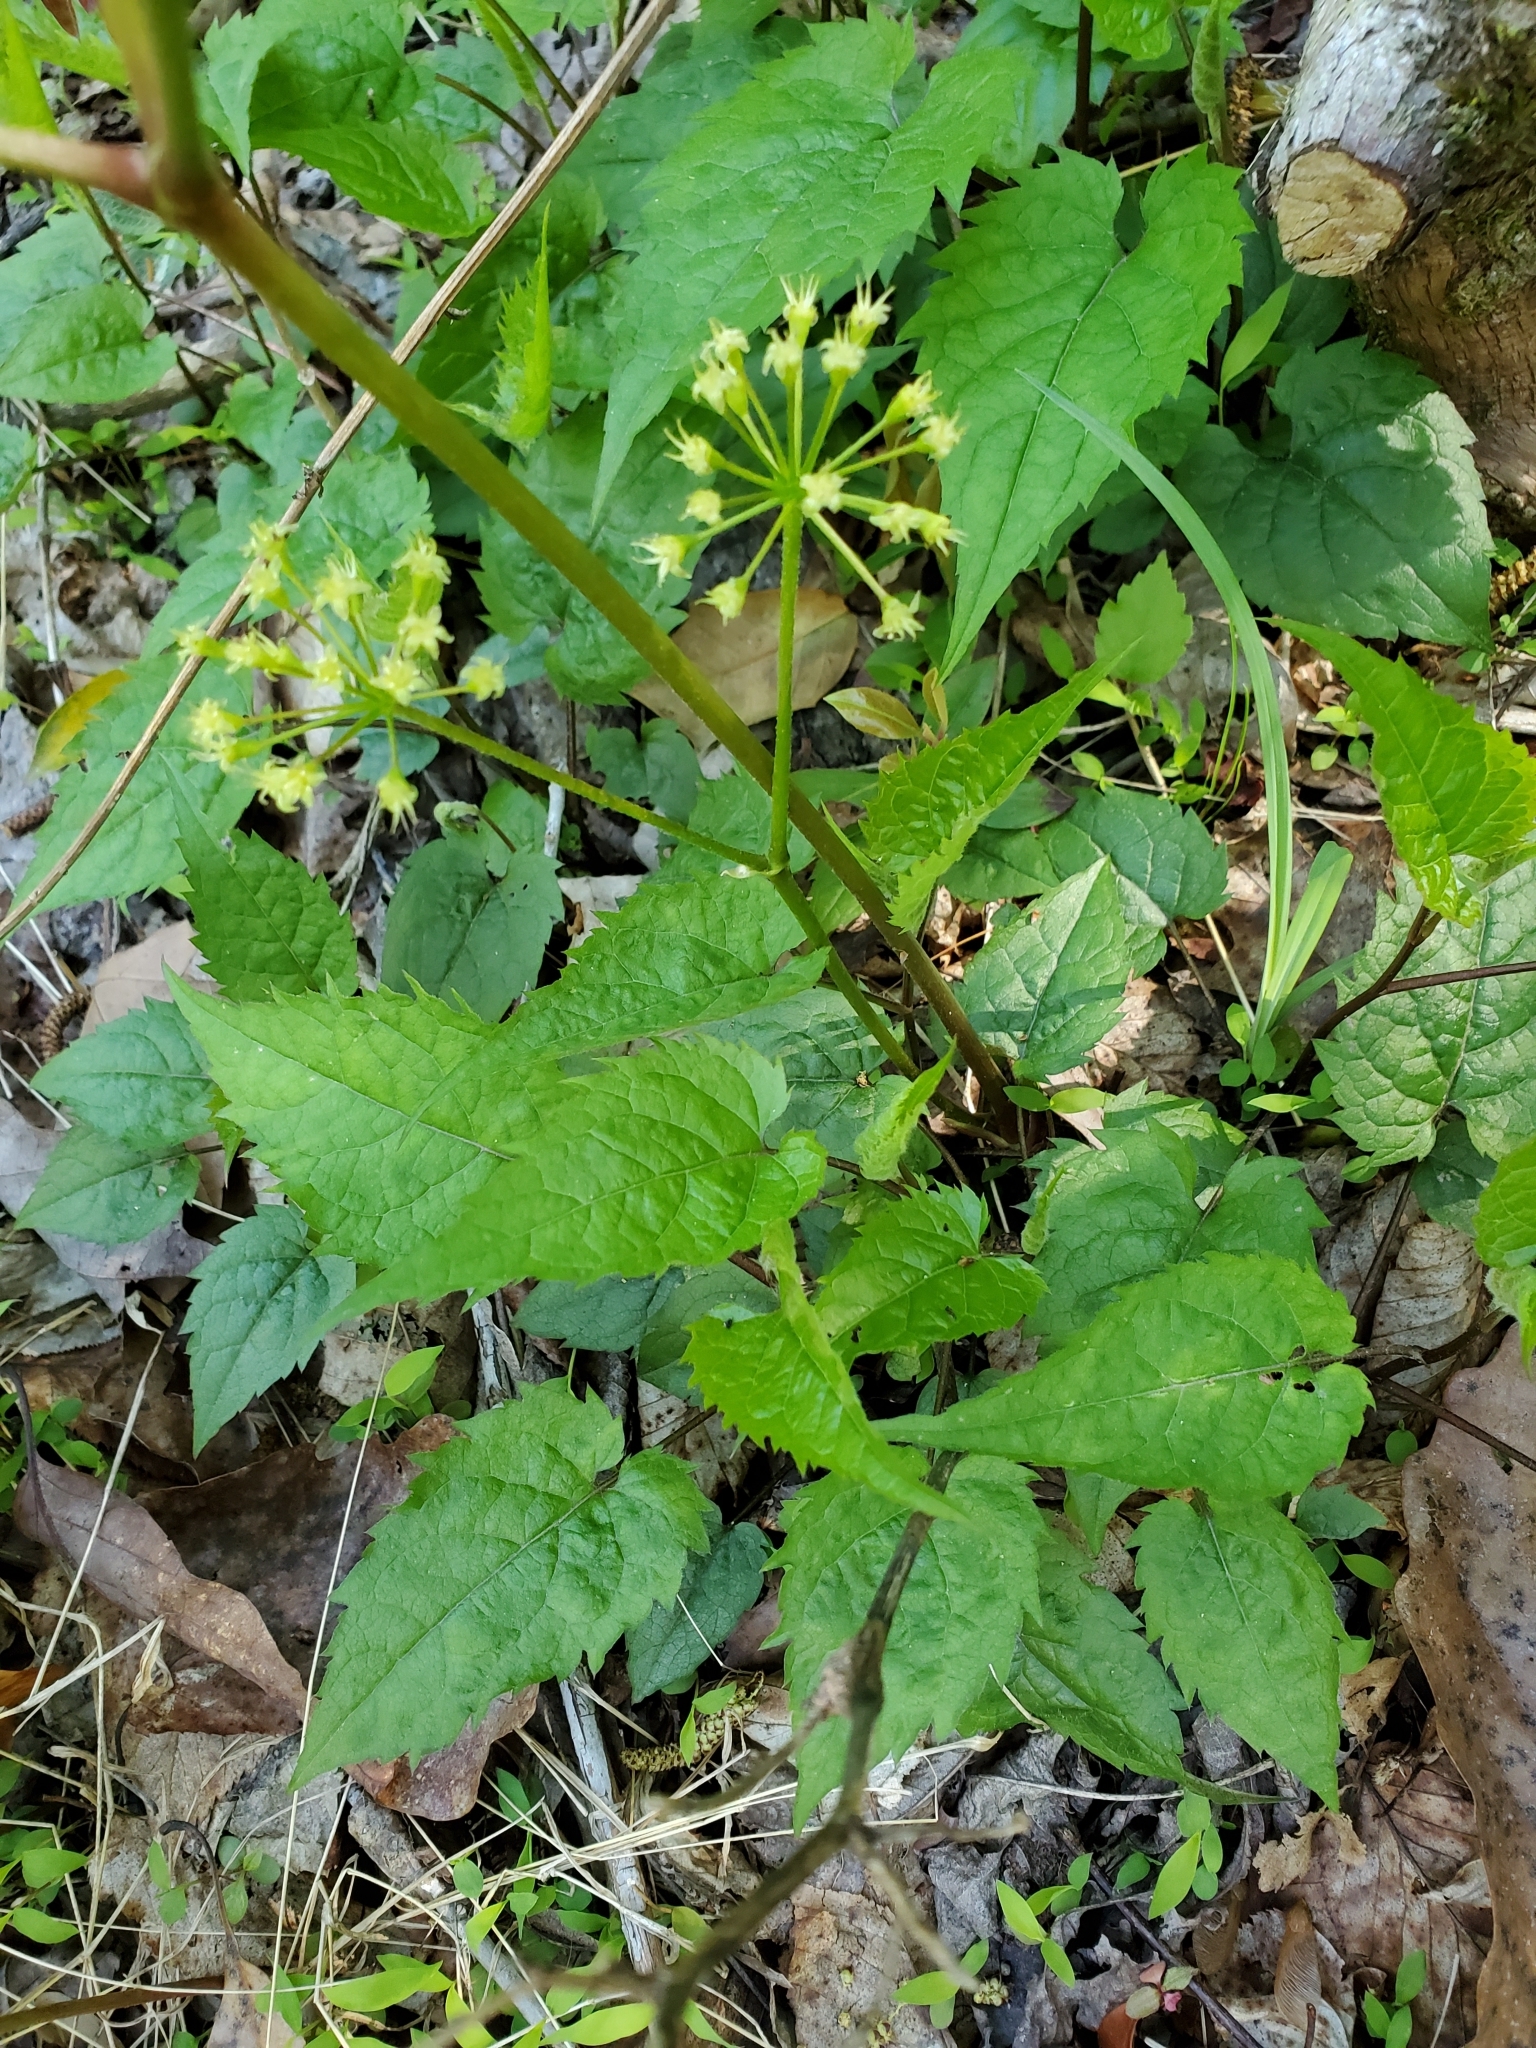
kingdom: Plantae
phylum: Tracheophyta
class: Magnoliopsida
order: Apiales
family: Araliaceae
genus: Aralia
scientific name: Aralia nudicaulis
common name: Wild sarsaparilla
